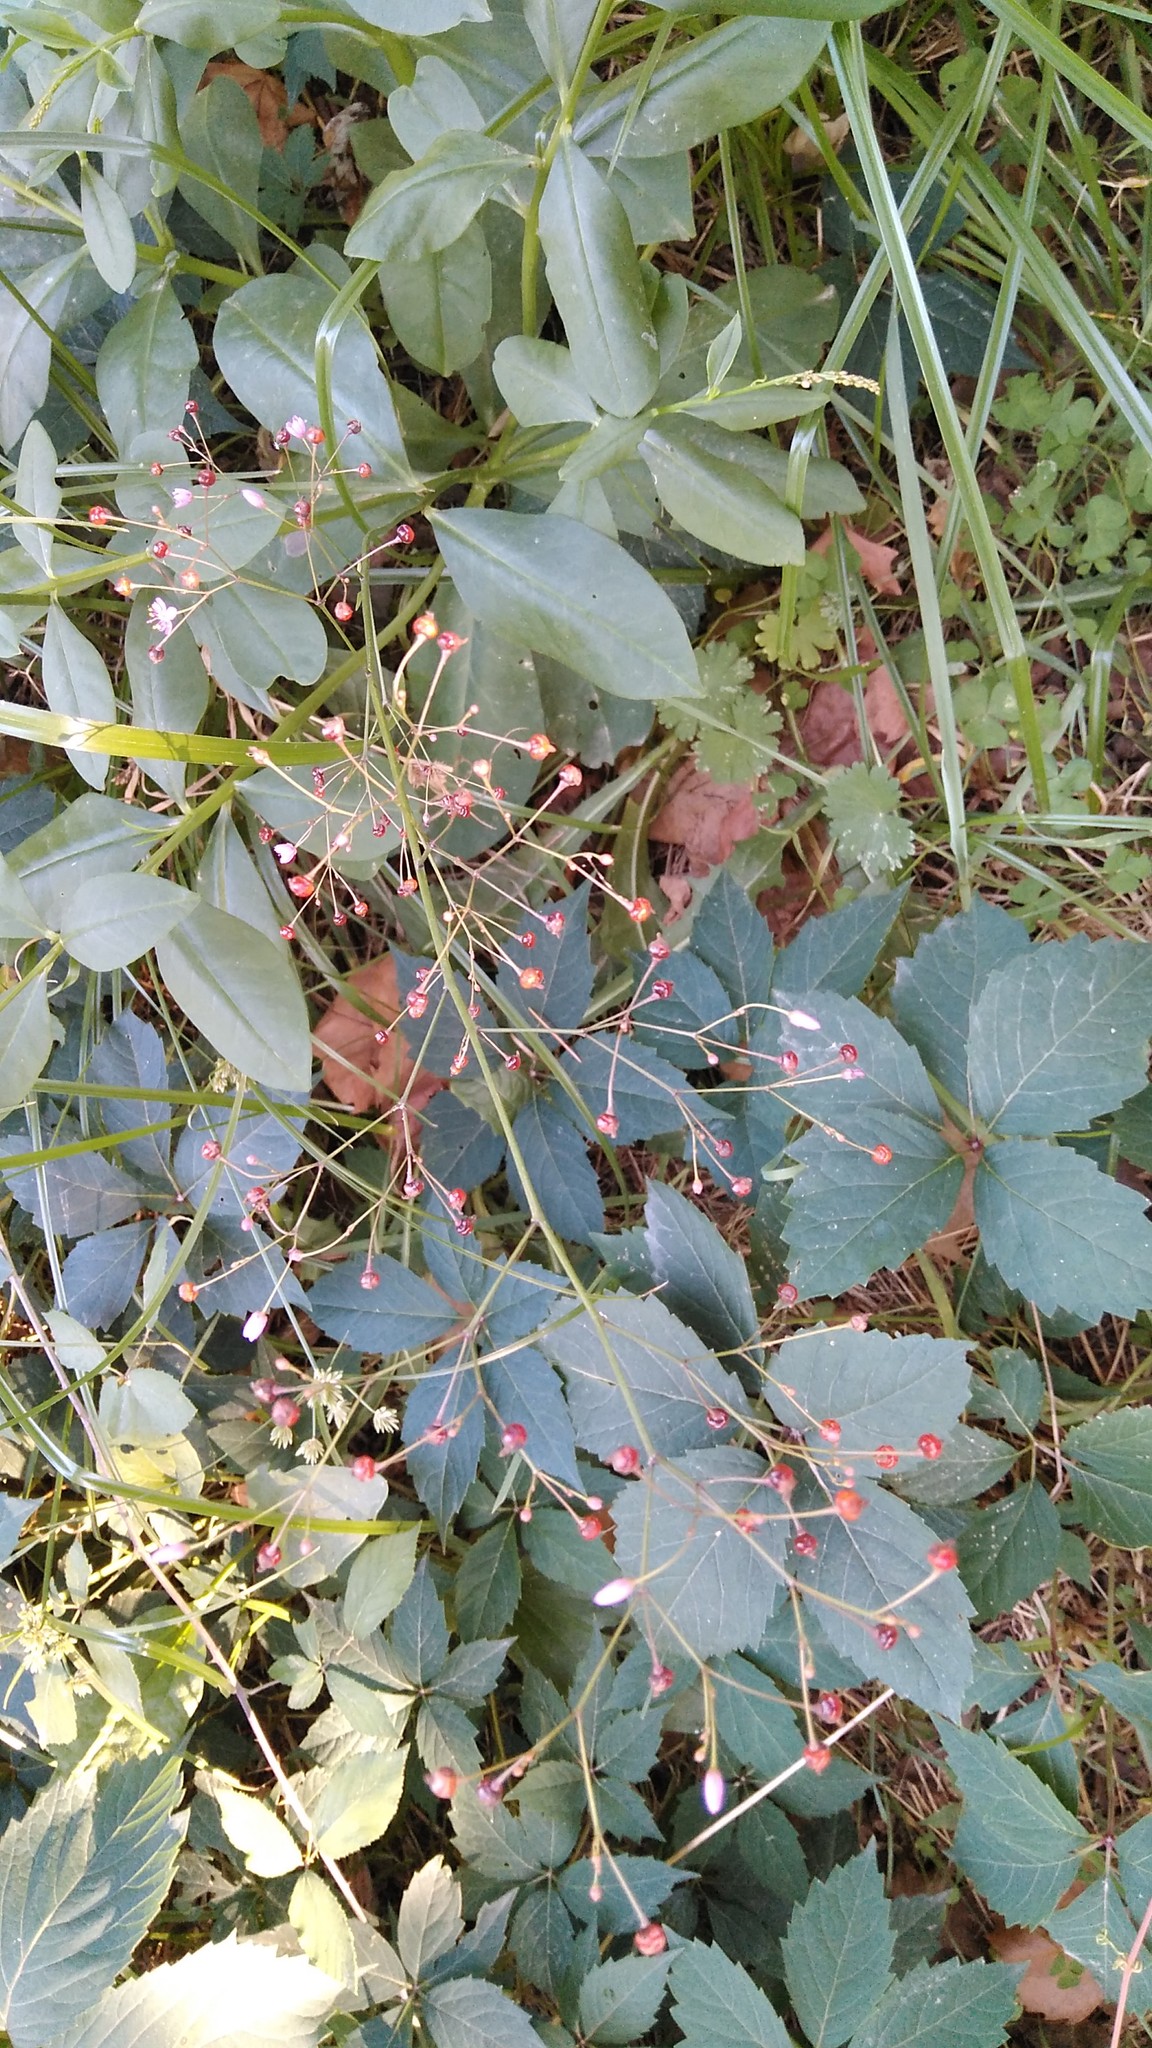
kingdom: Plantae
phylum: Tracheophyta
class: Magnoliopsida
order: Caryophyllales
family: Talinaceae
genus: Talinum
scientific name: Talinum paniculatum
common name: Jewels of opar
